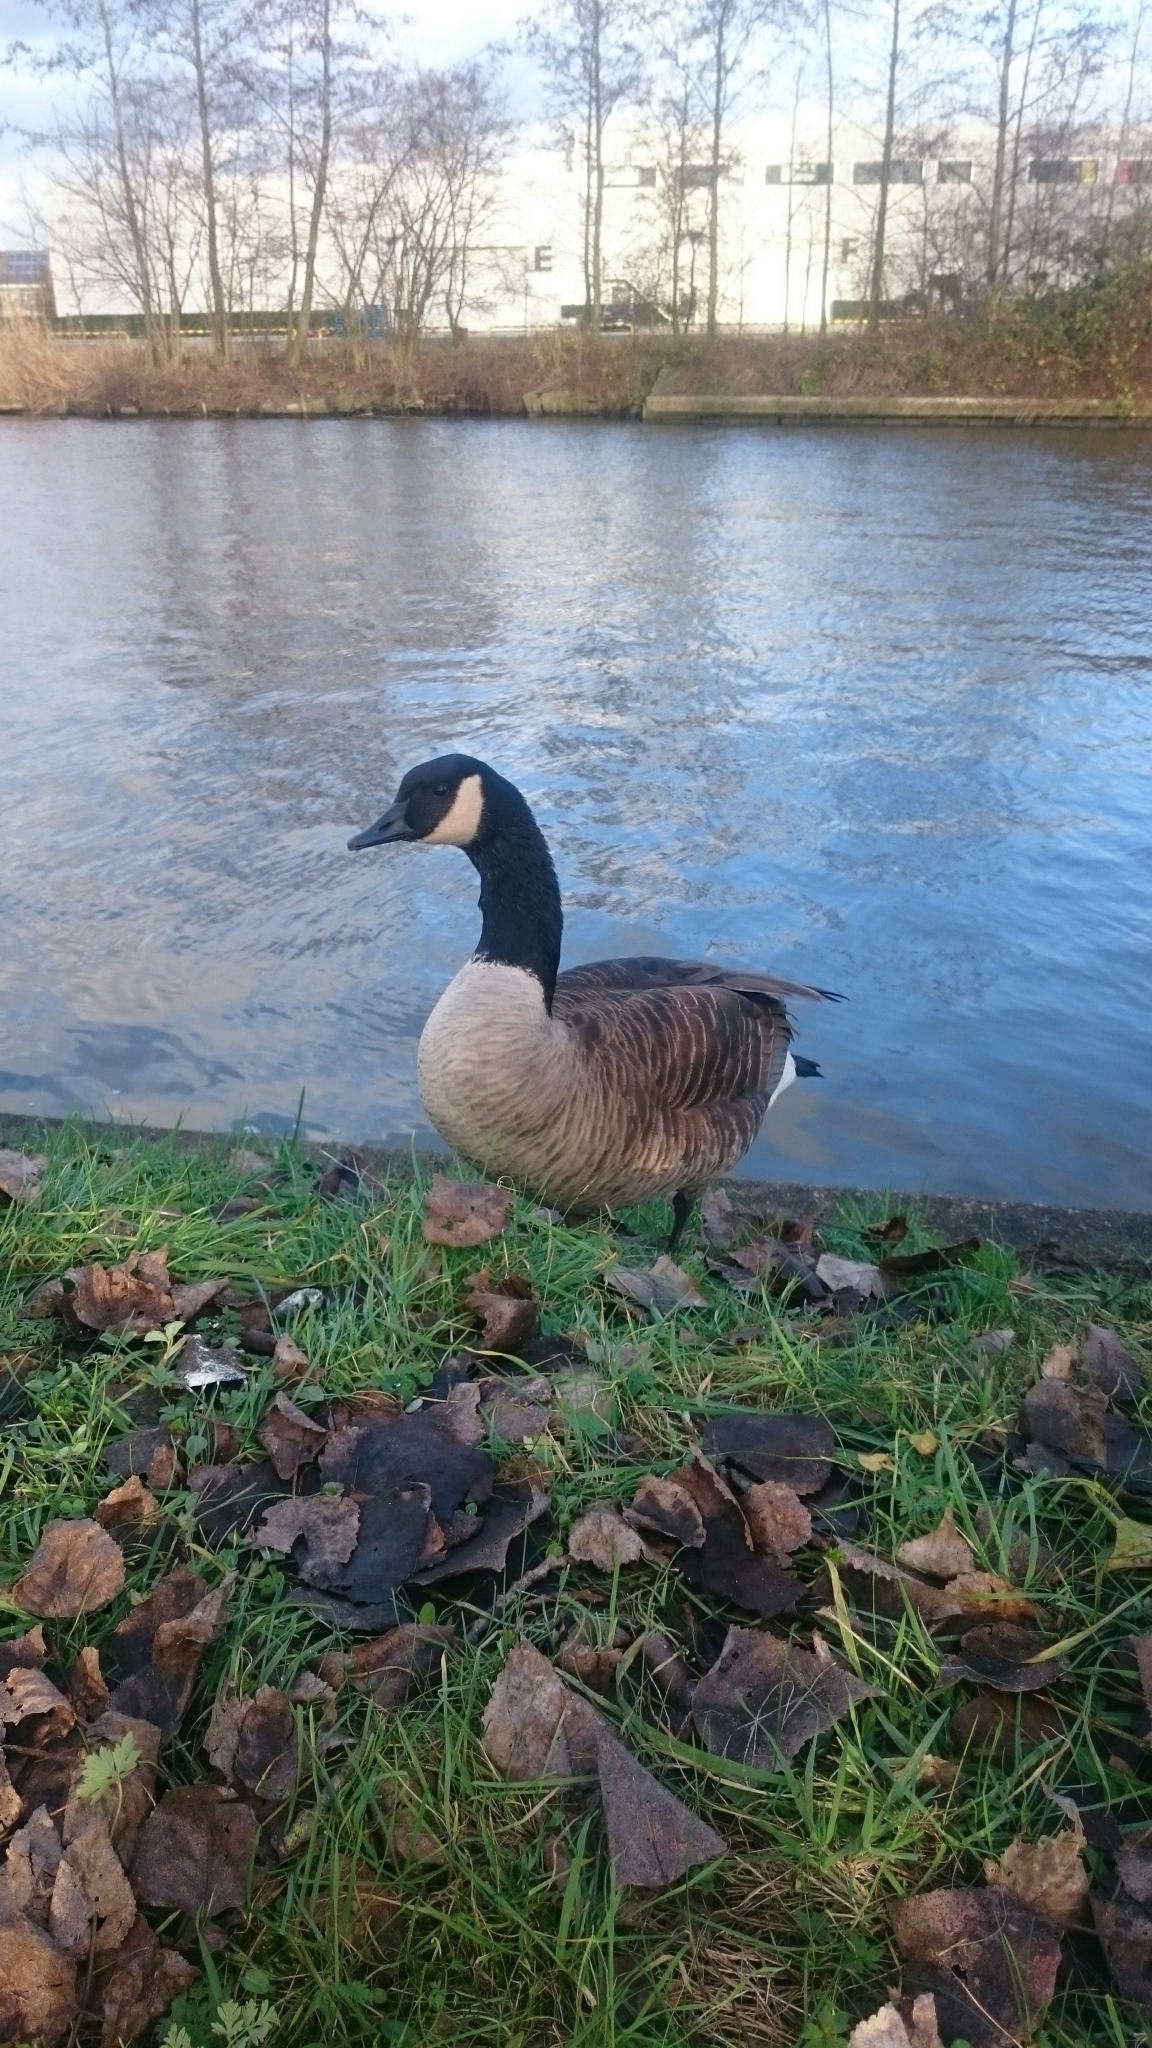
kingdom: Animalia
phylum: Chordata
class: Aves
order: Anseriformes
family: Anatidae
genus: Branta
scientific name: Branta canadensis
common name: Canada goose
